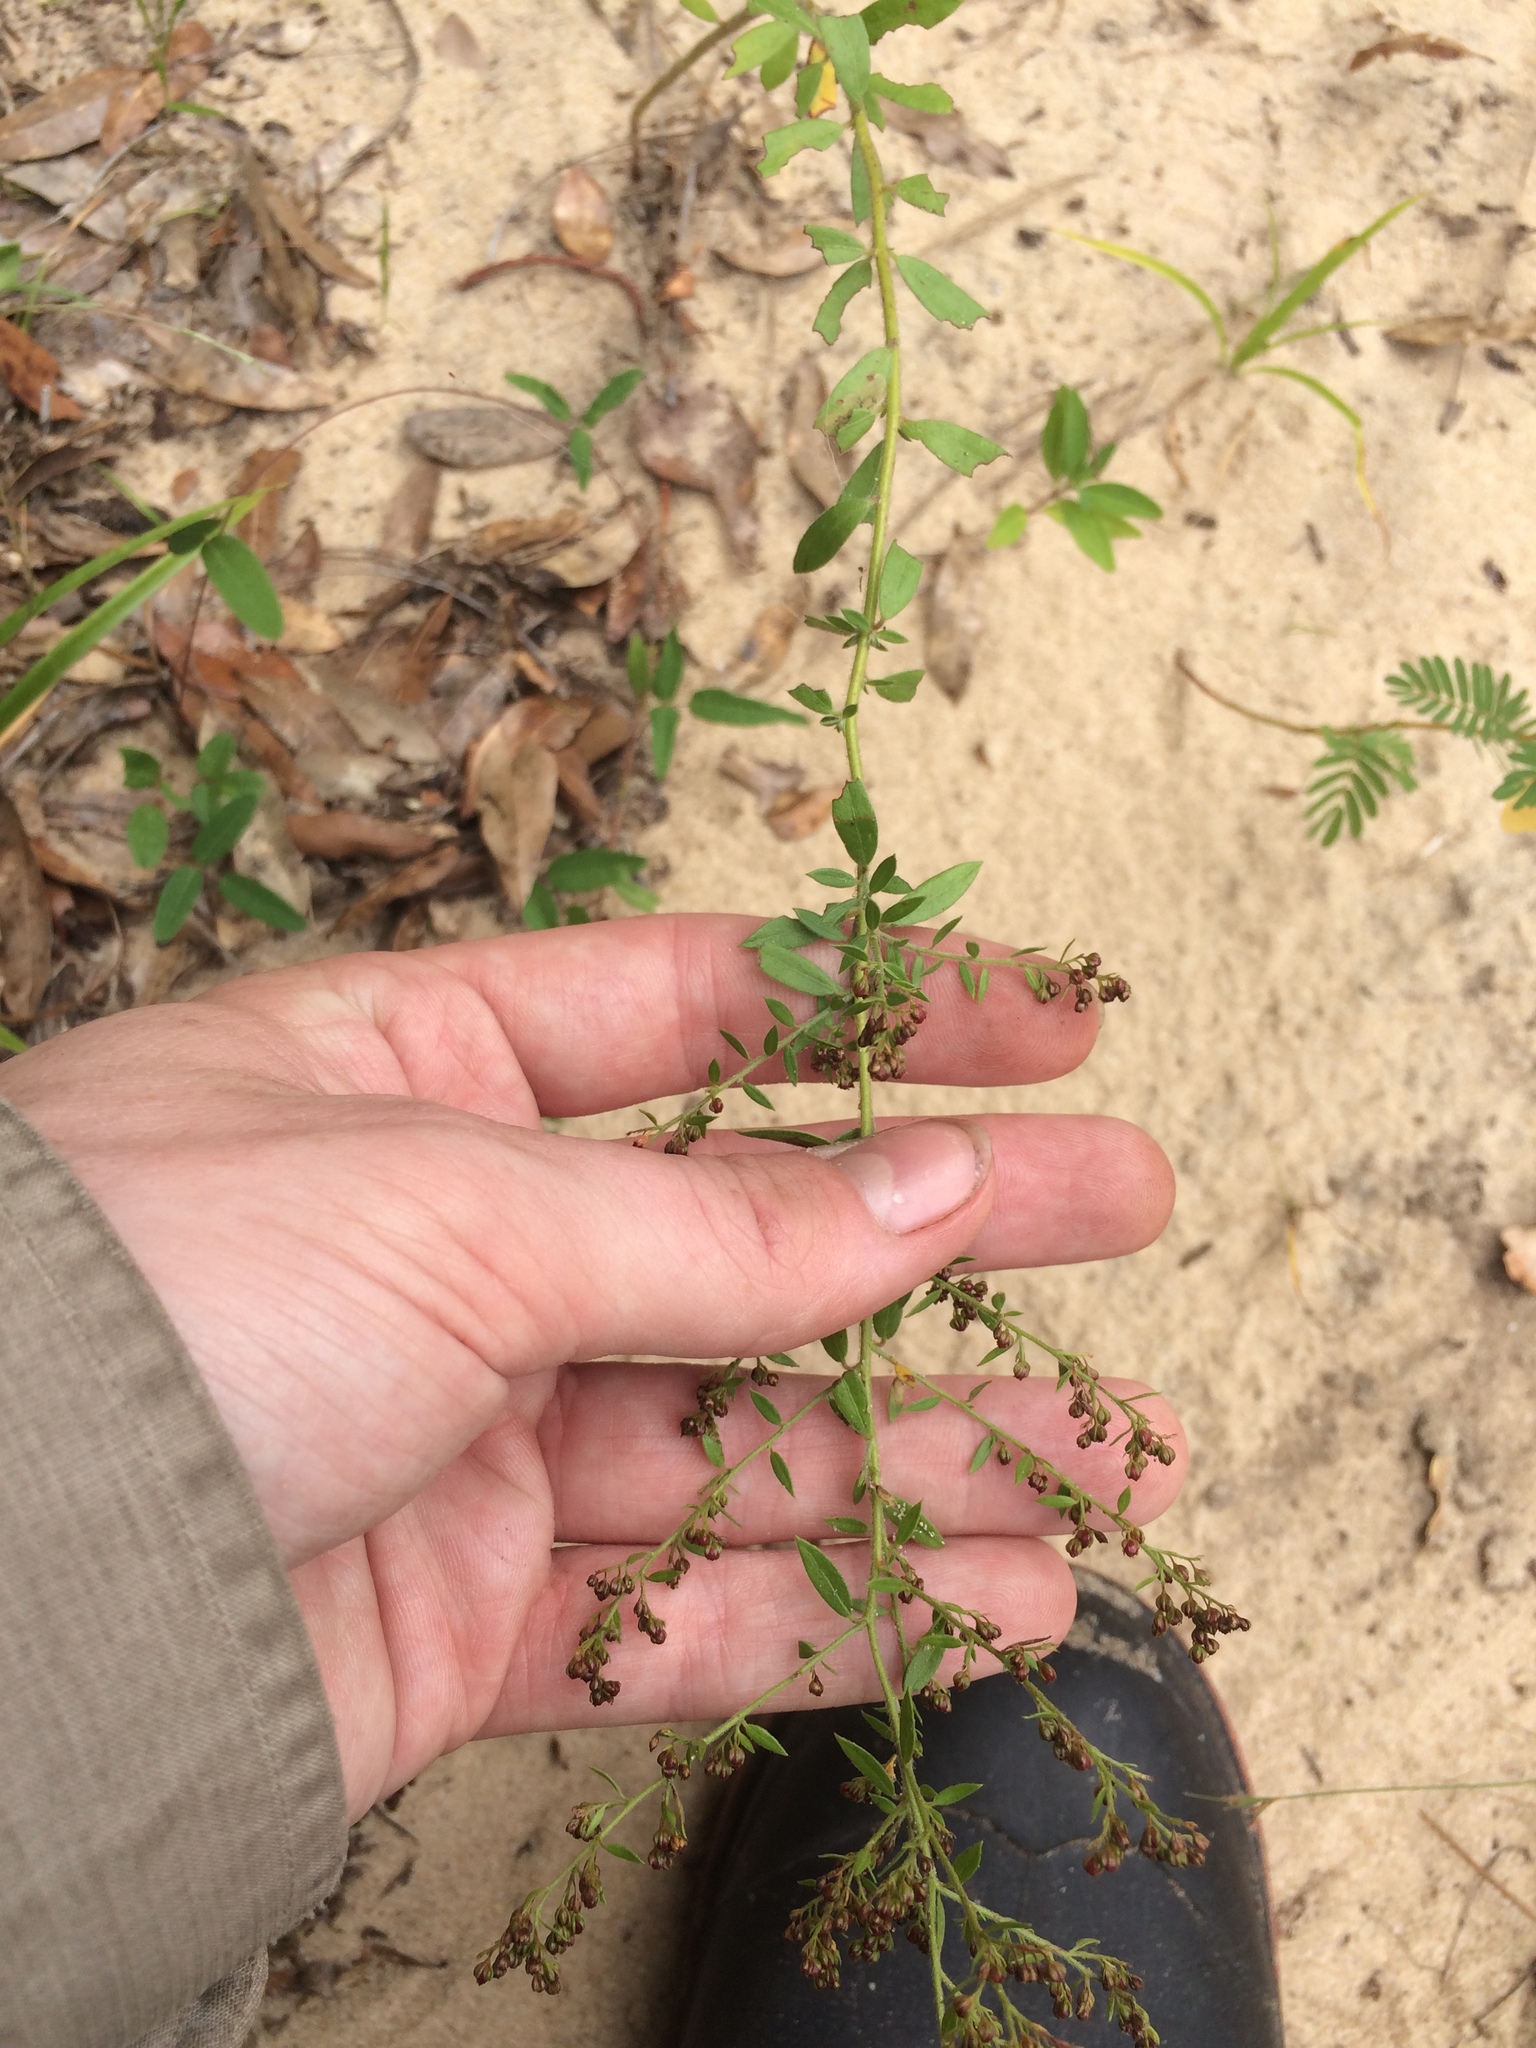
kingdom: Plantae
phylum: Tracheophyta
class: Magnoliopsida
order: Malvales
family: Cistaceae
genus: Lechea
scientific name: Lechea mucronata
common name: Hairy pinweed
